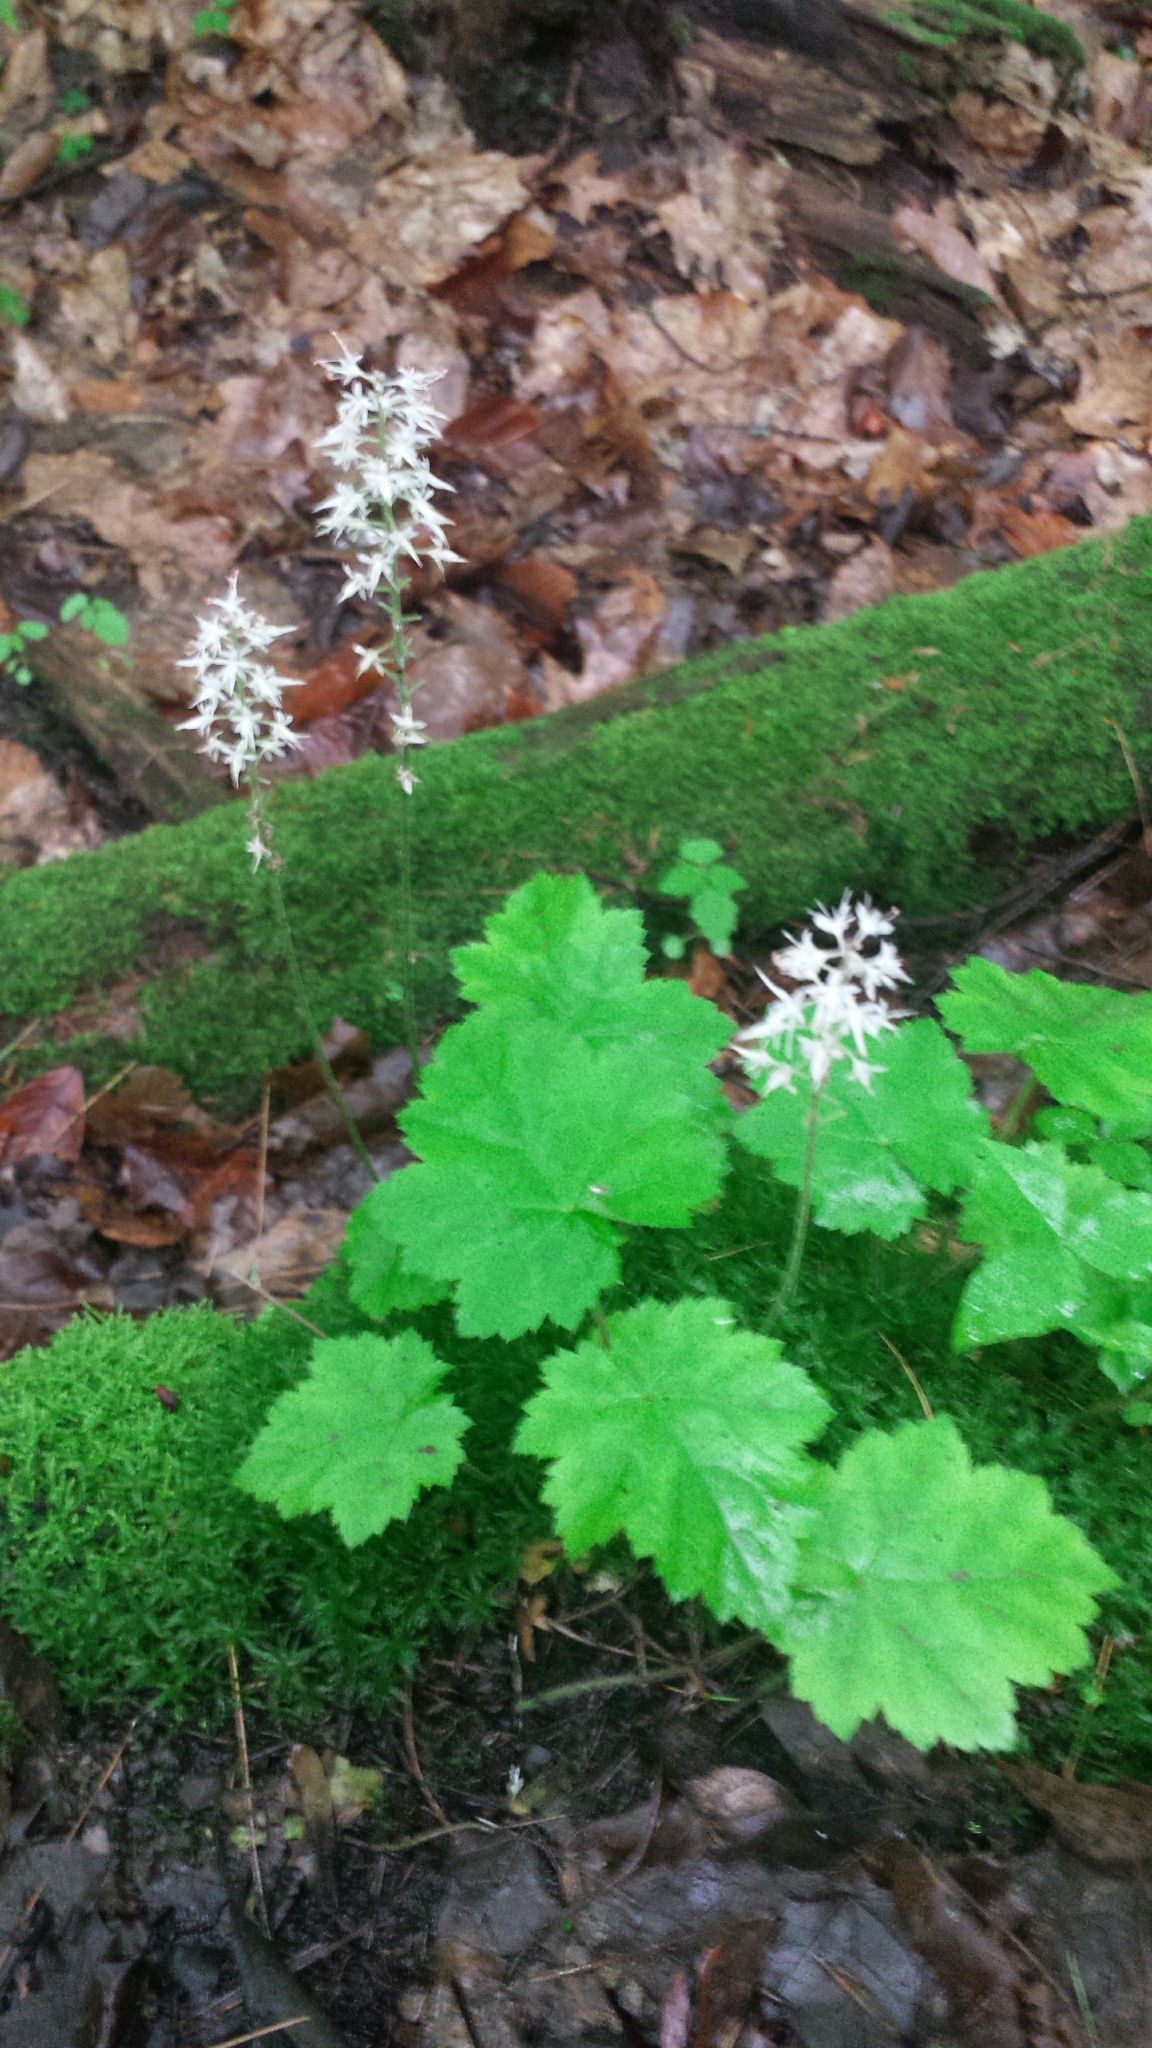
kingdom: Plantae
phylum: Tracheophyta
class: Magnoliopsida
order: Saxifragales
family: Saxifragaceae
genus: Tiarella
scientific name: Tiarella stolonifera
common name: Stoloniferous foamflower
